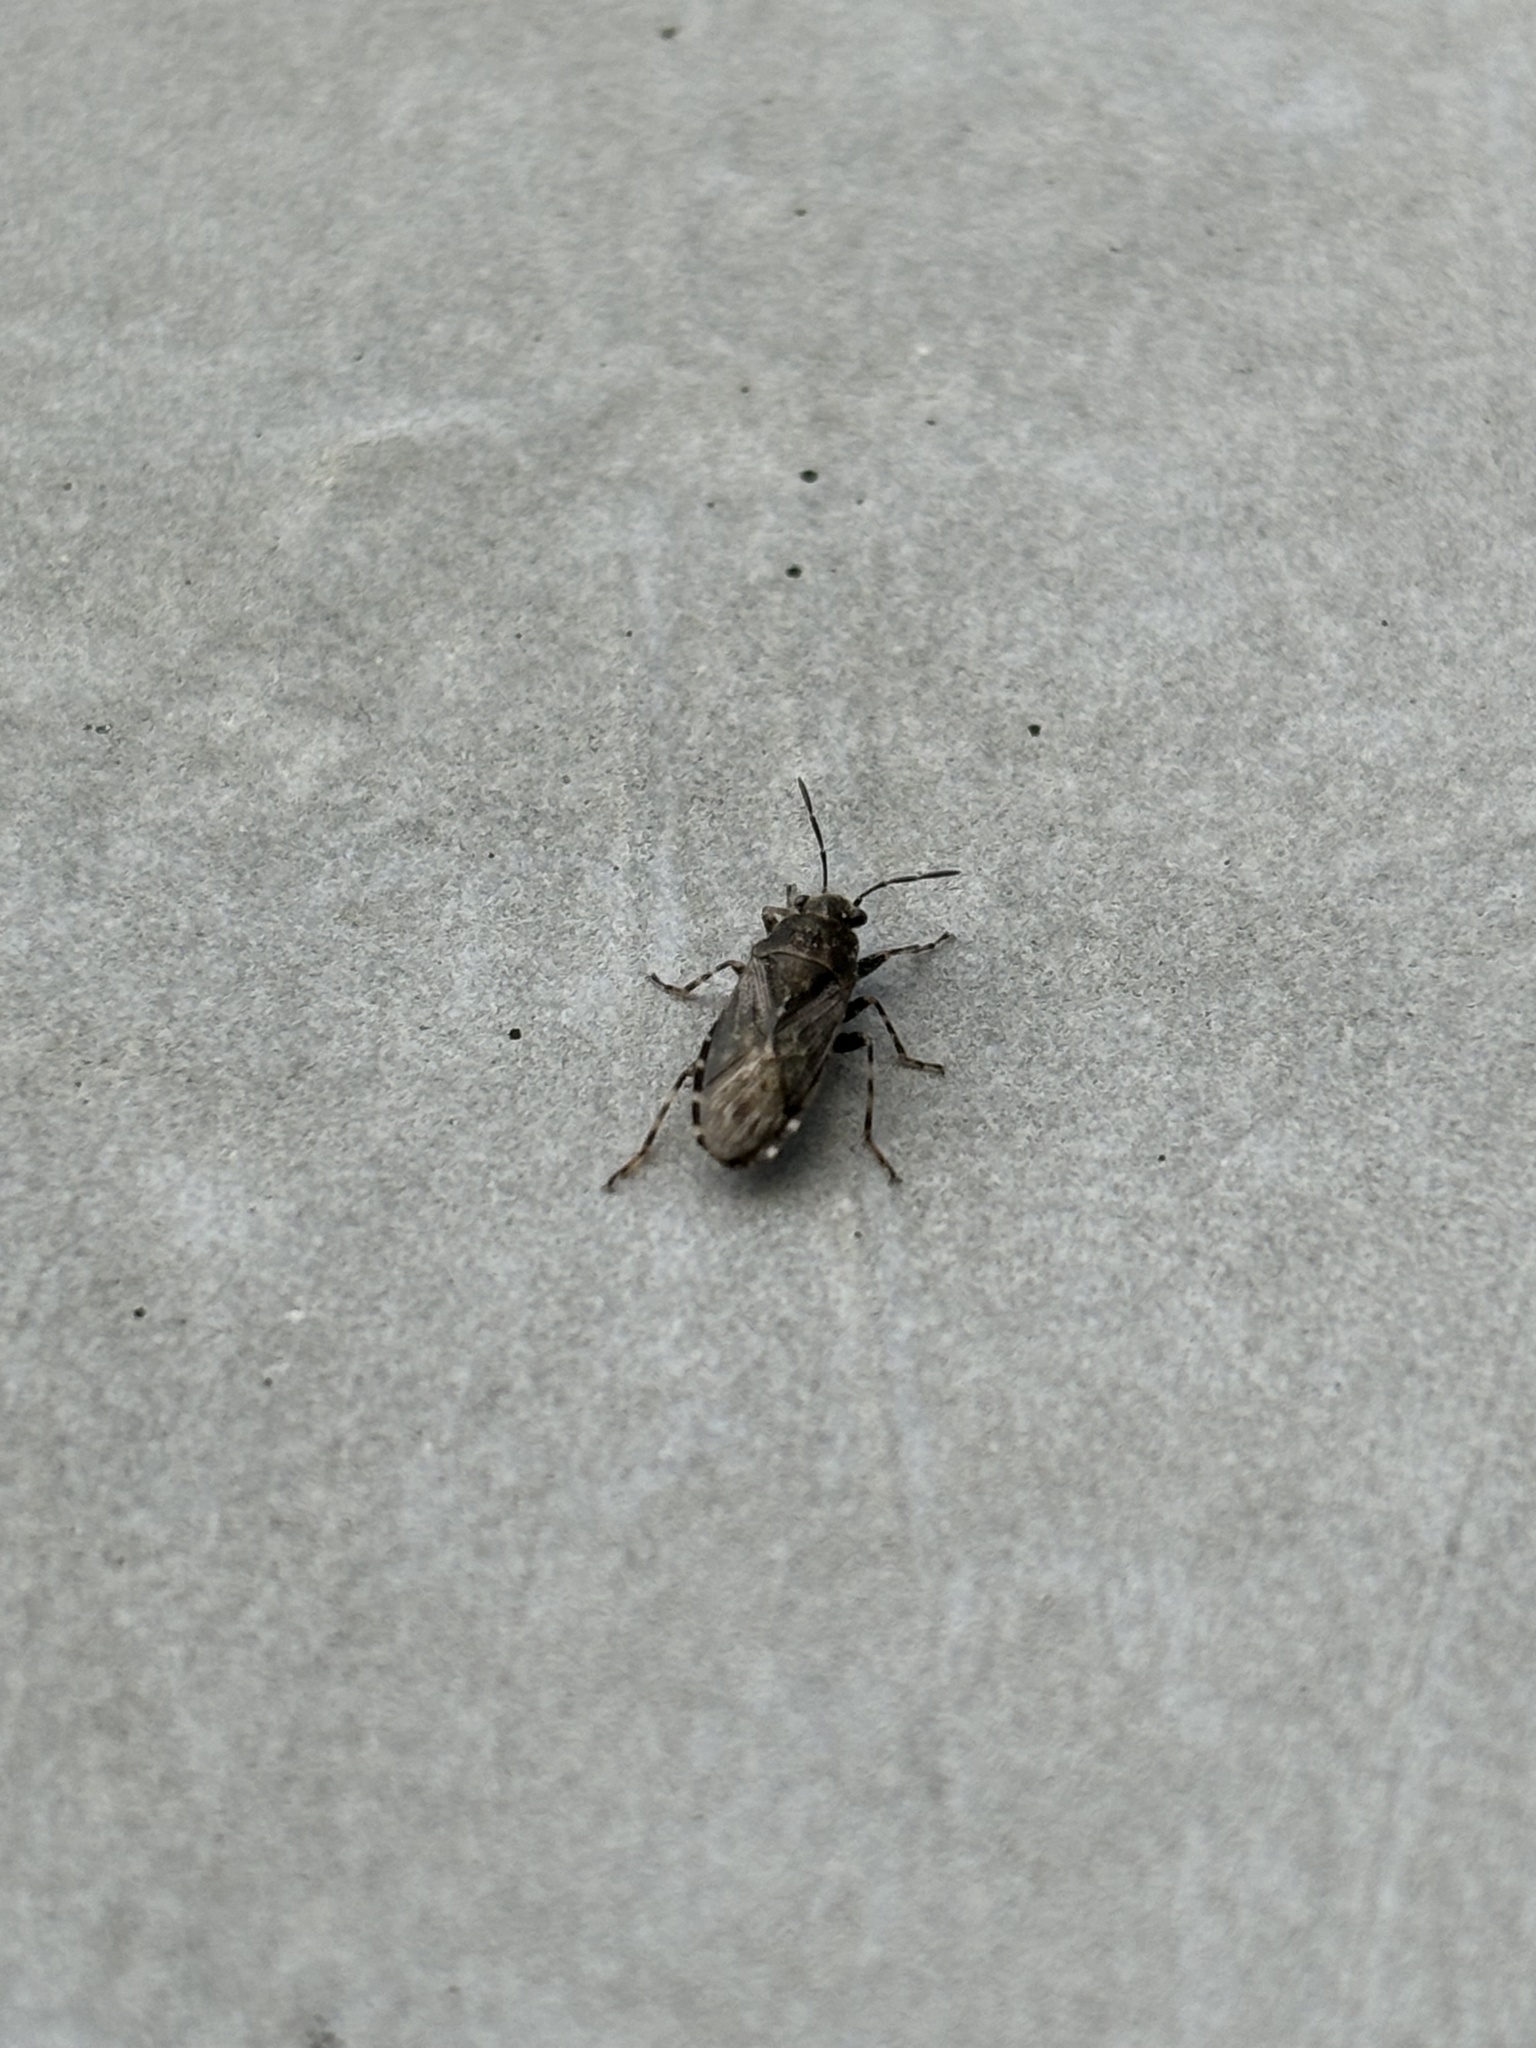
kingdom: Animalia
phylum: Arthropoda
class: Insecta
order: Hemiptera
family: Heterogastridae
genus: Heterogaster
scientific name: Heterogaster urticae
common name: Seed bug
